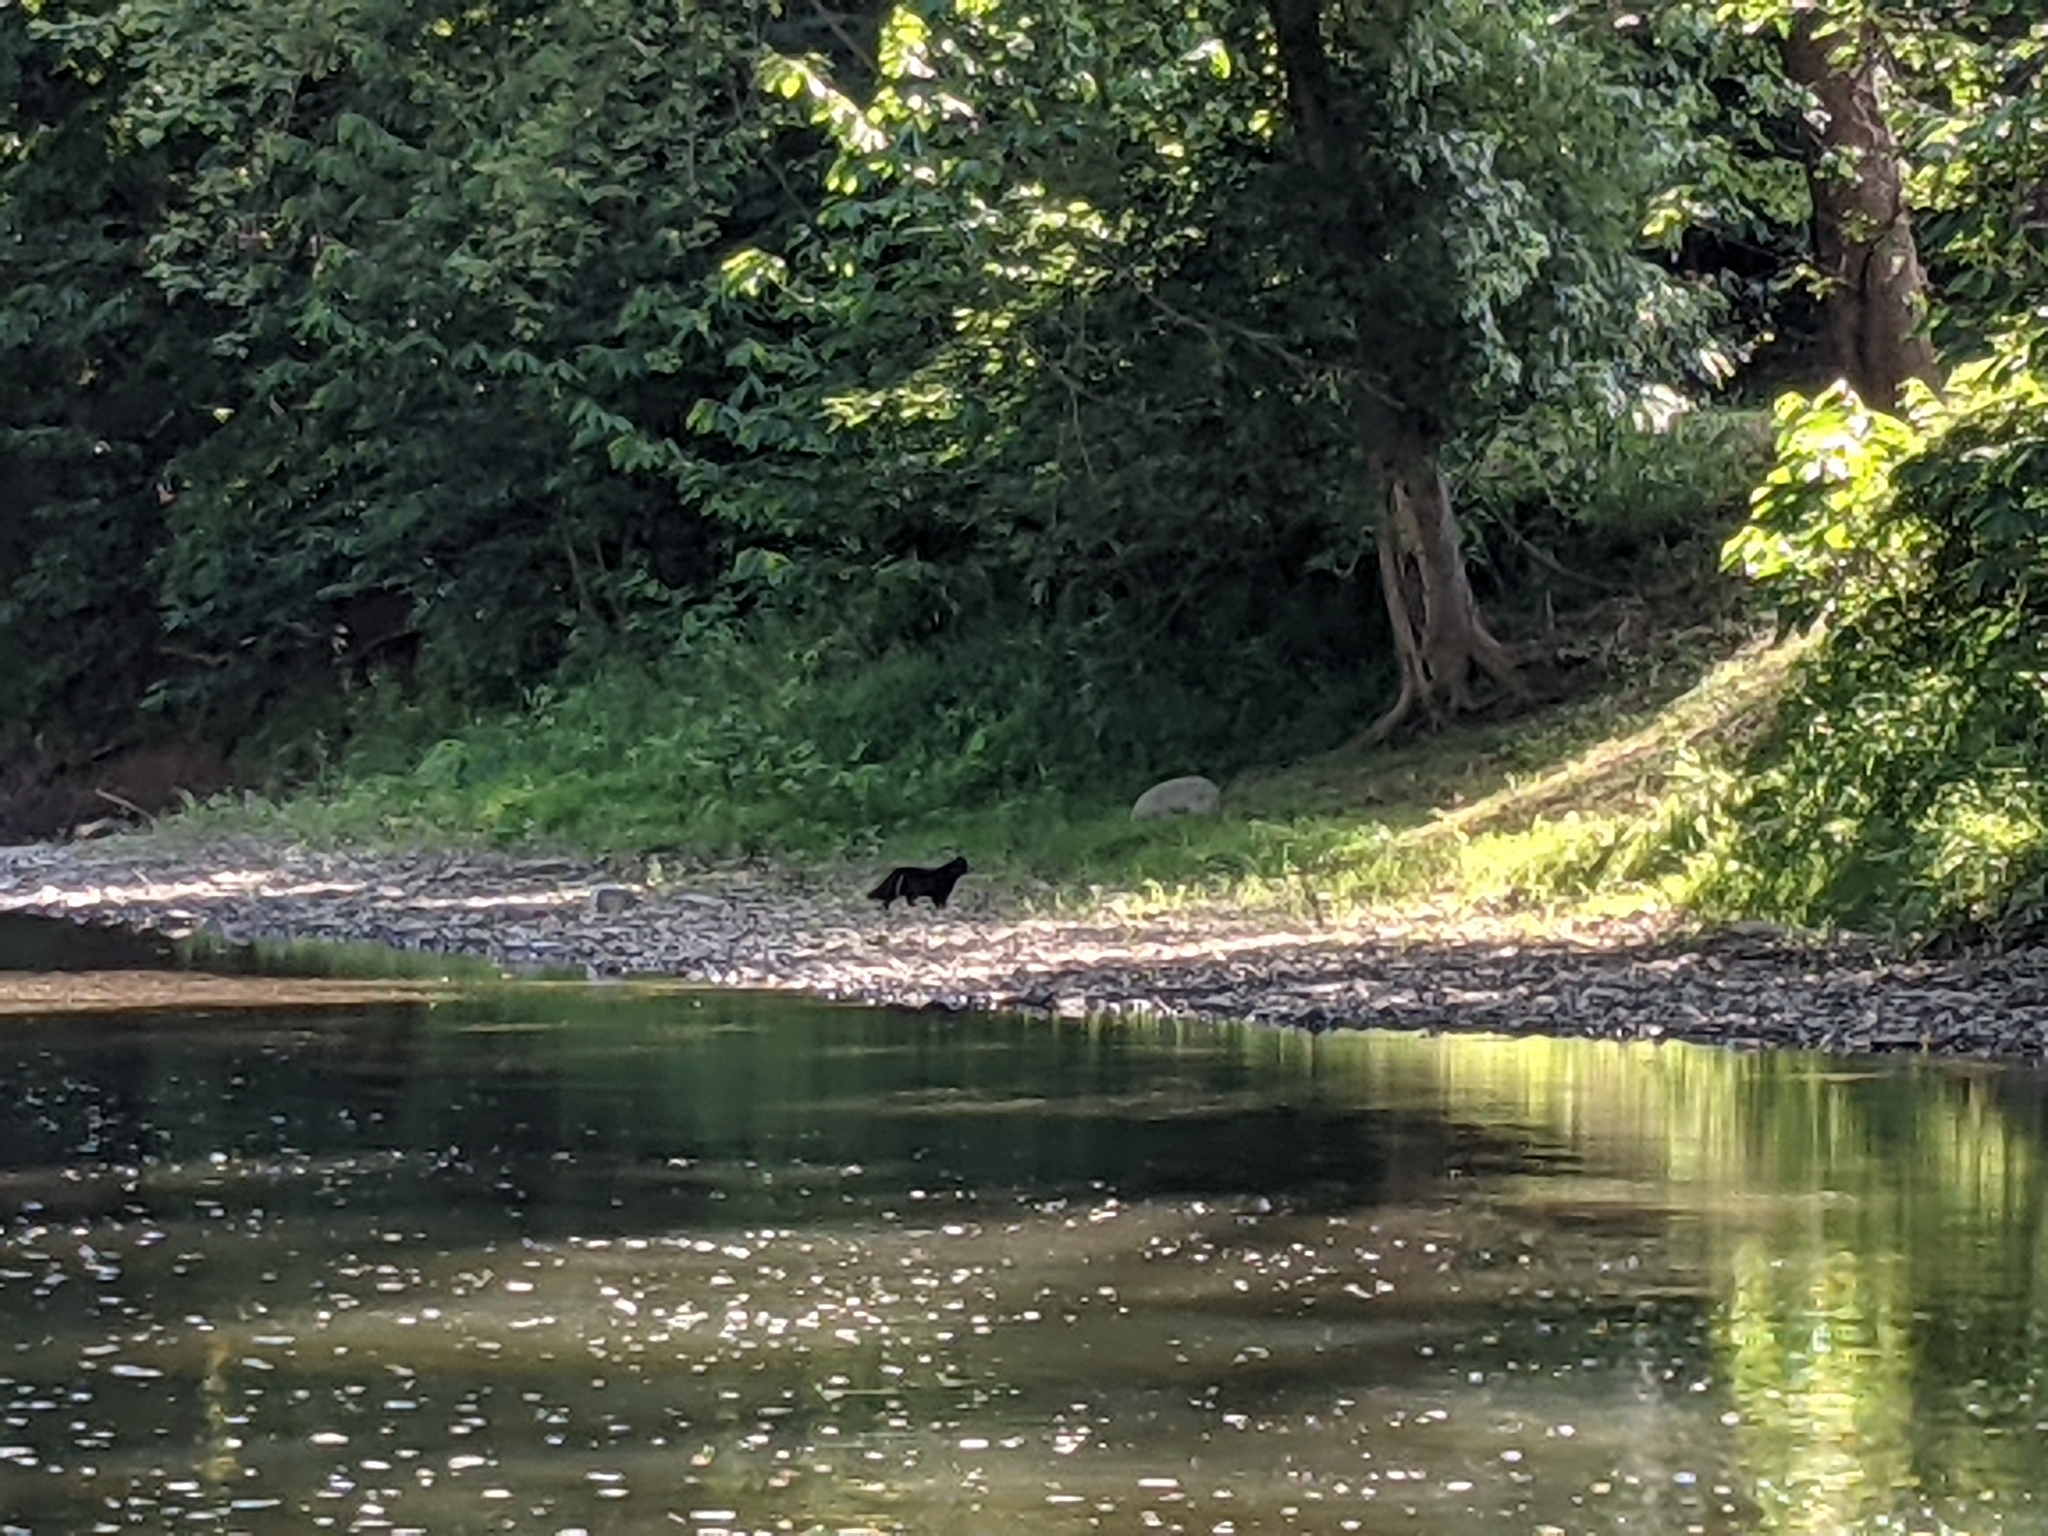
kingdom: Animalia
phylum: Chordata
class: Mammalia
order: Carnivora
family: Felidae
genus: Felis
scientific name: Felis catus
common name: Domestic cat
